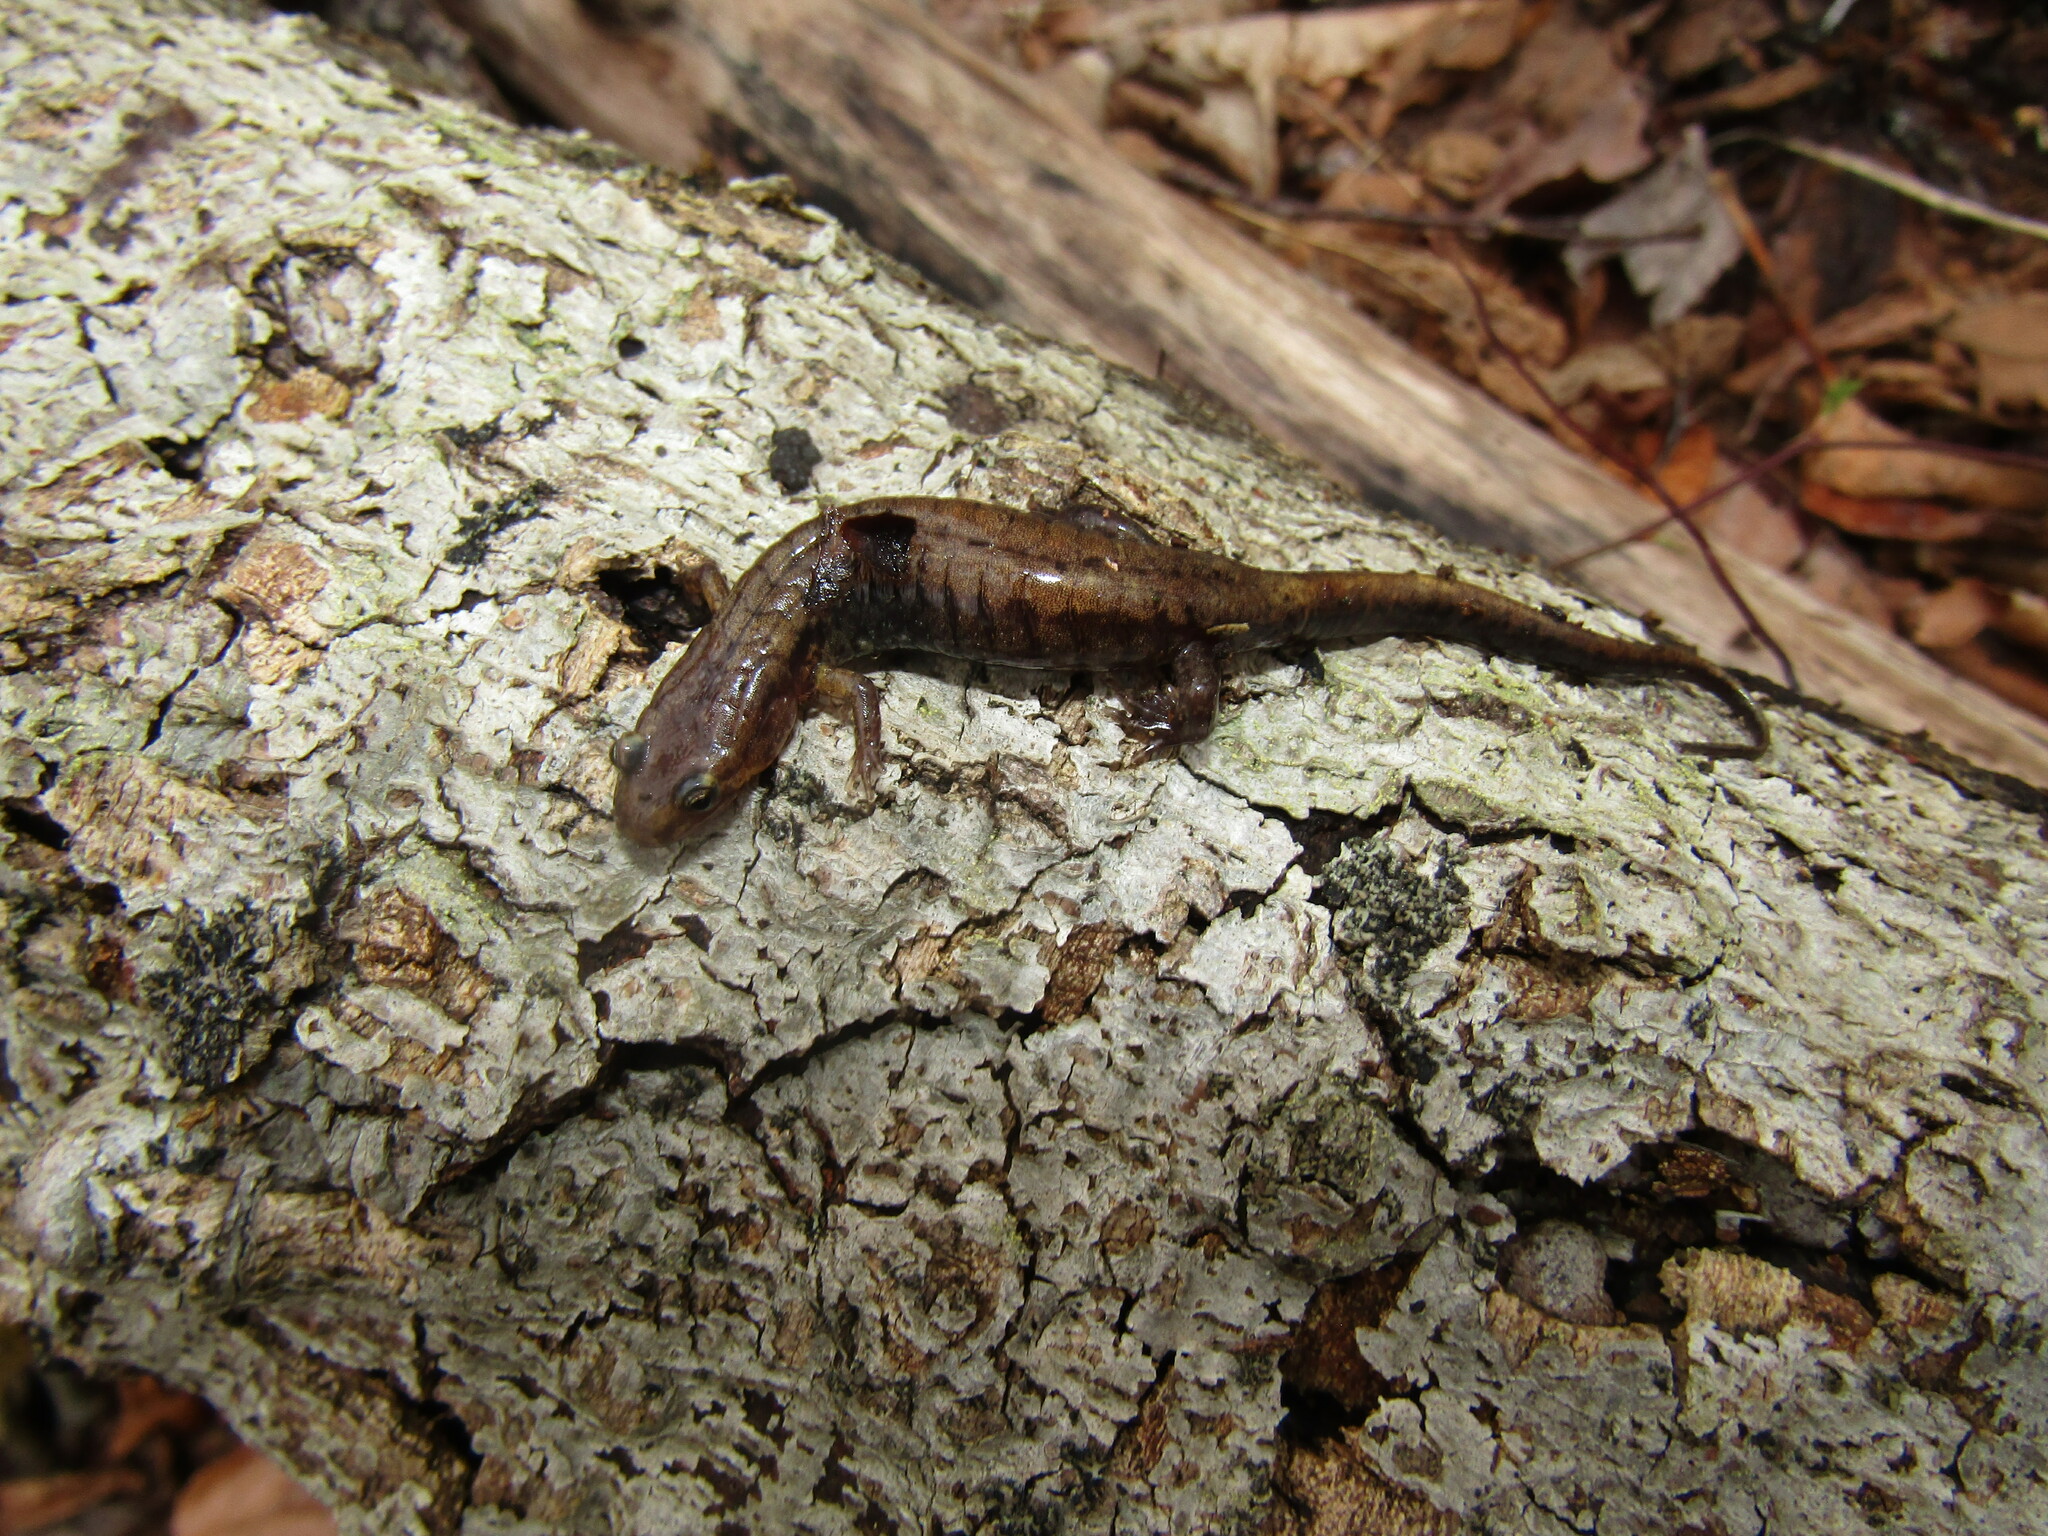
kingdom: Animalia
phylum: Chordata
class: Amphibia
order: Caudata
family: Plethodontidae
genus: Desmognathus
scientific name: Desmognathus ochrophaeus
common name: Allegheny mountain dusky salamander
